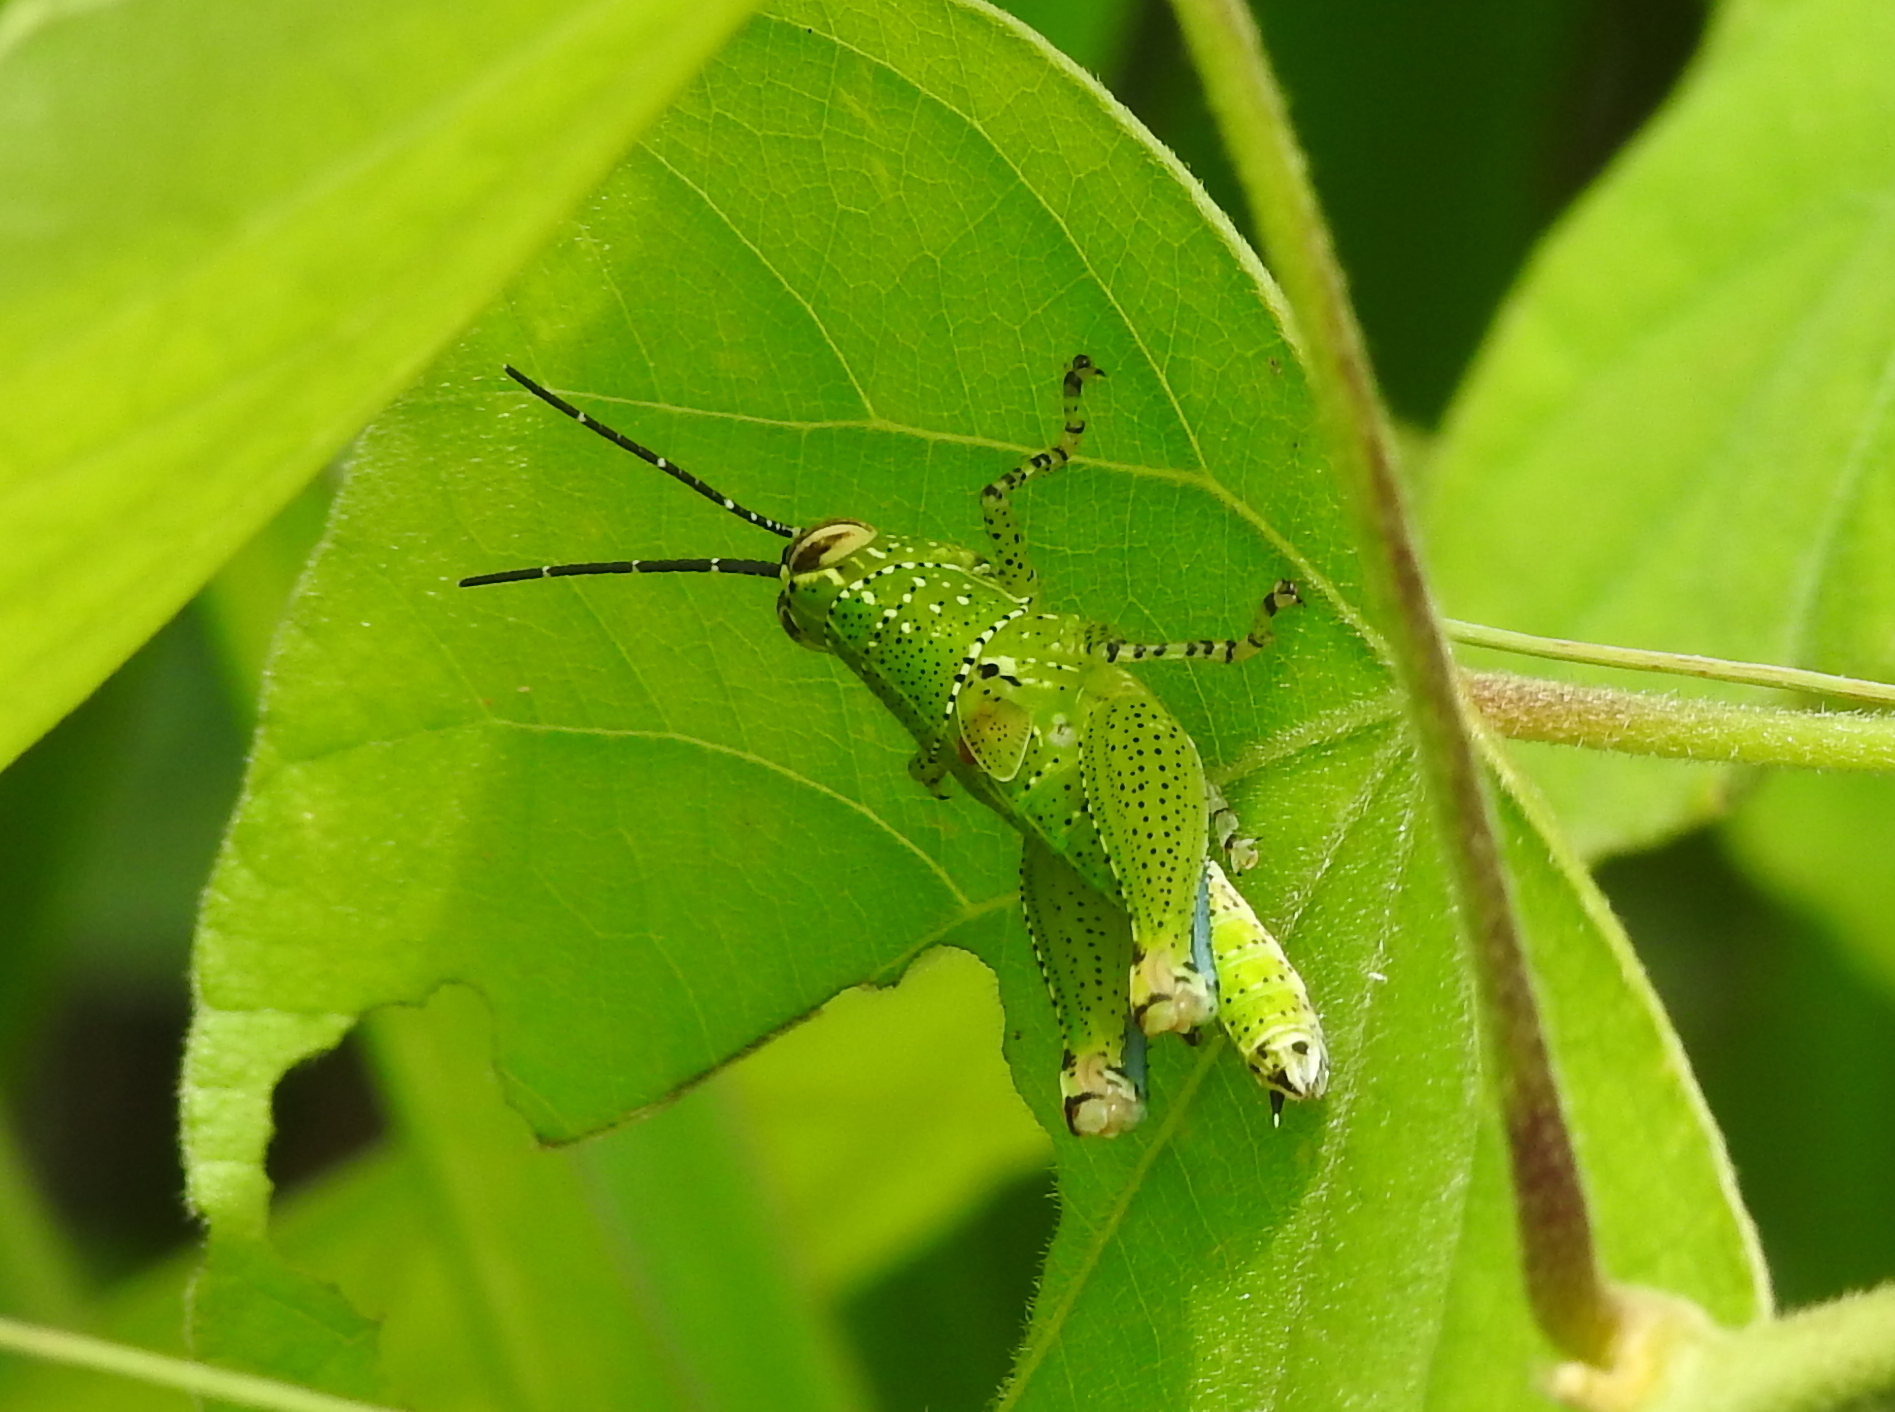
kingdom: Animalia
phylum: Arthropoda
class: Insecta
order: Orthoptera
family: Acrididae
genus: Xenocatantops
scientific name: Xenocatantops humile
